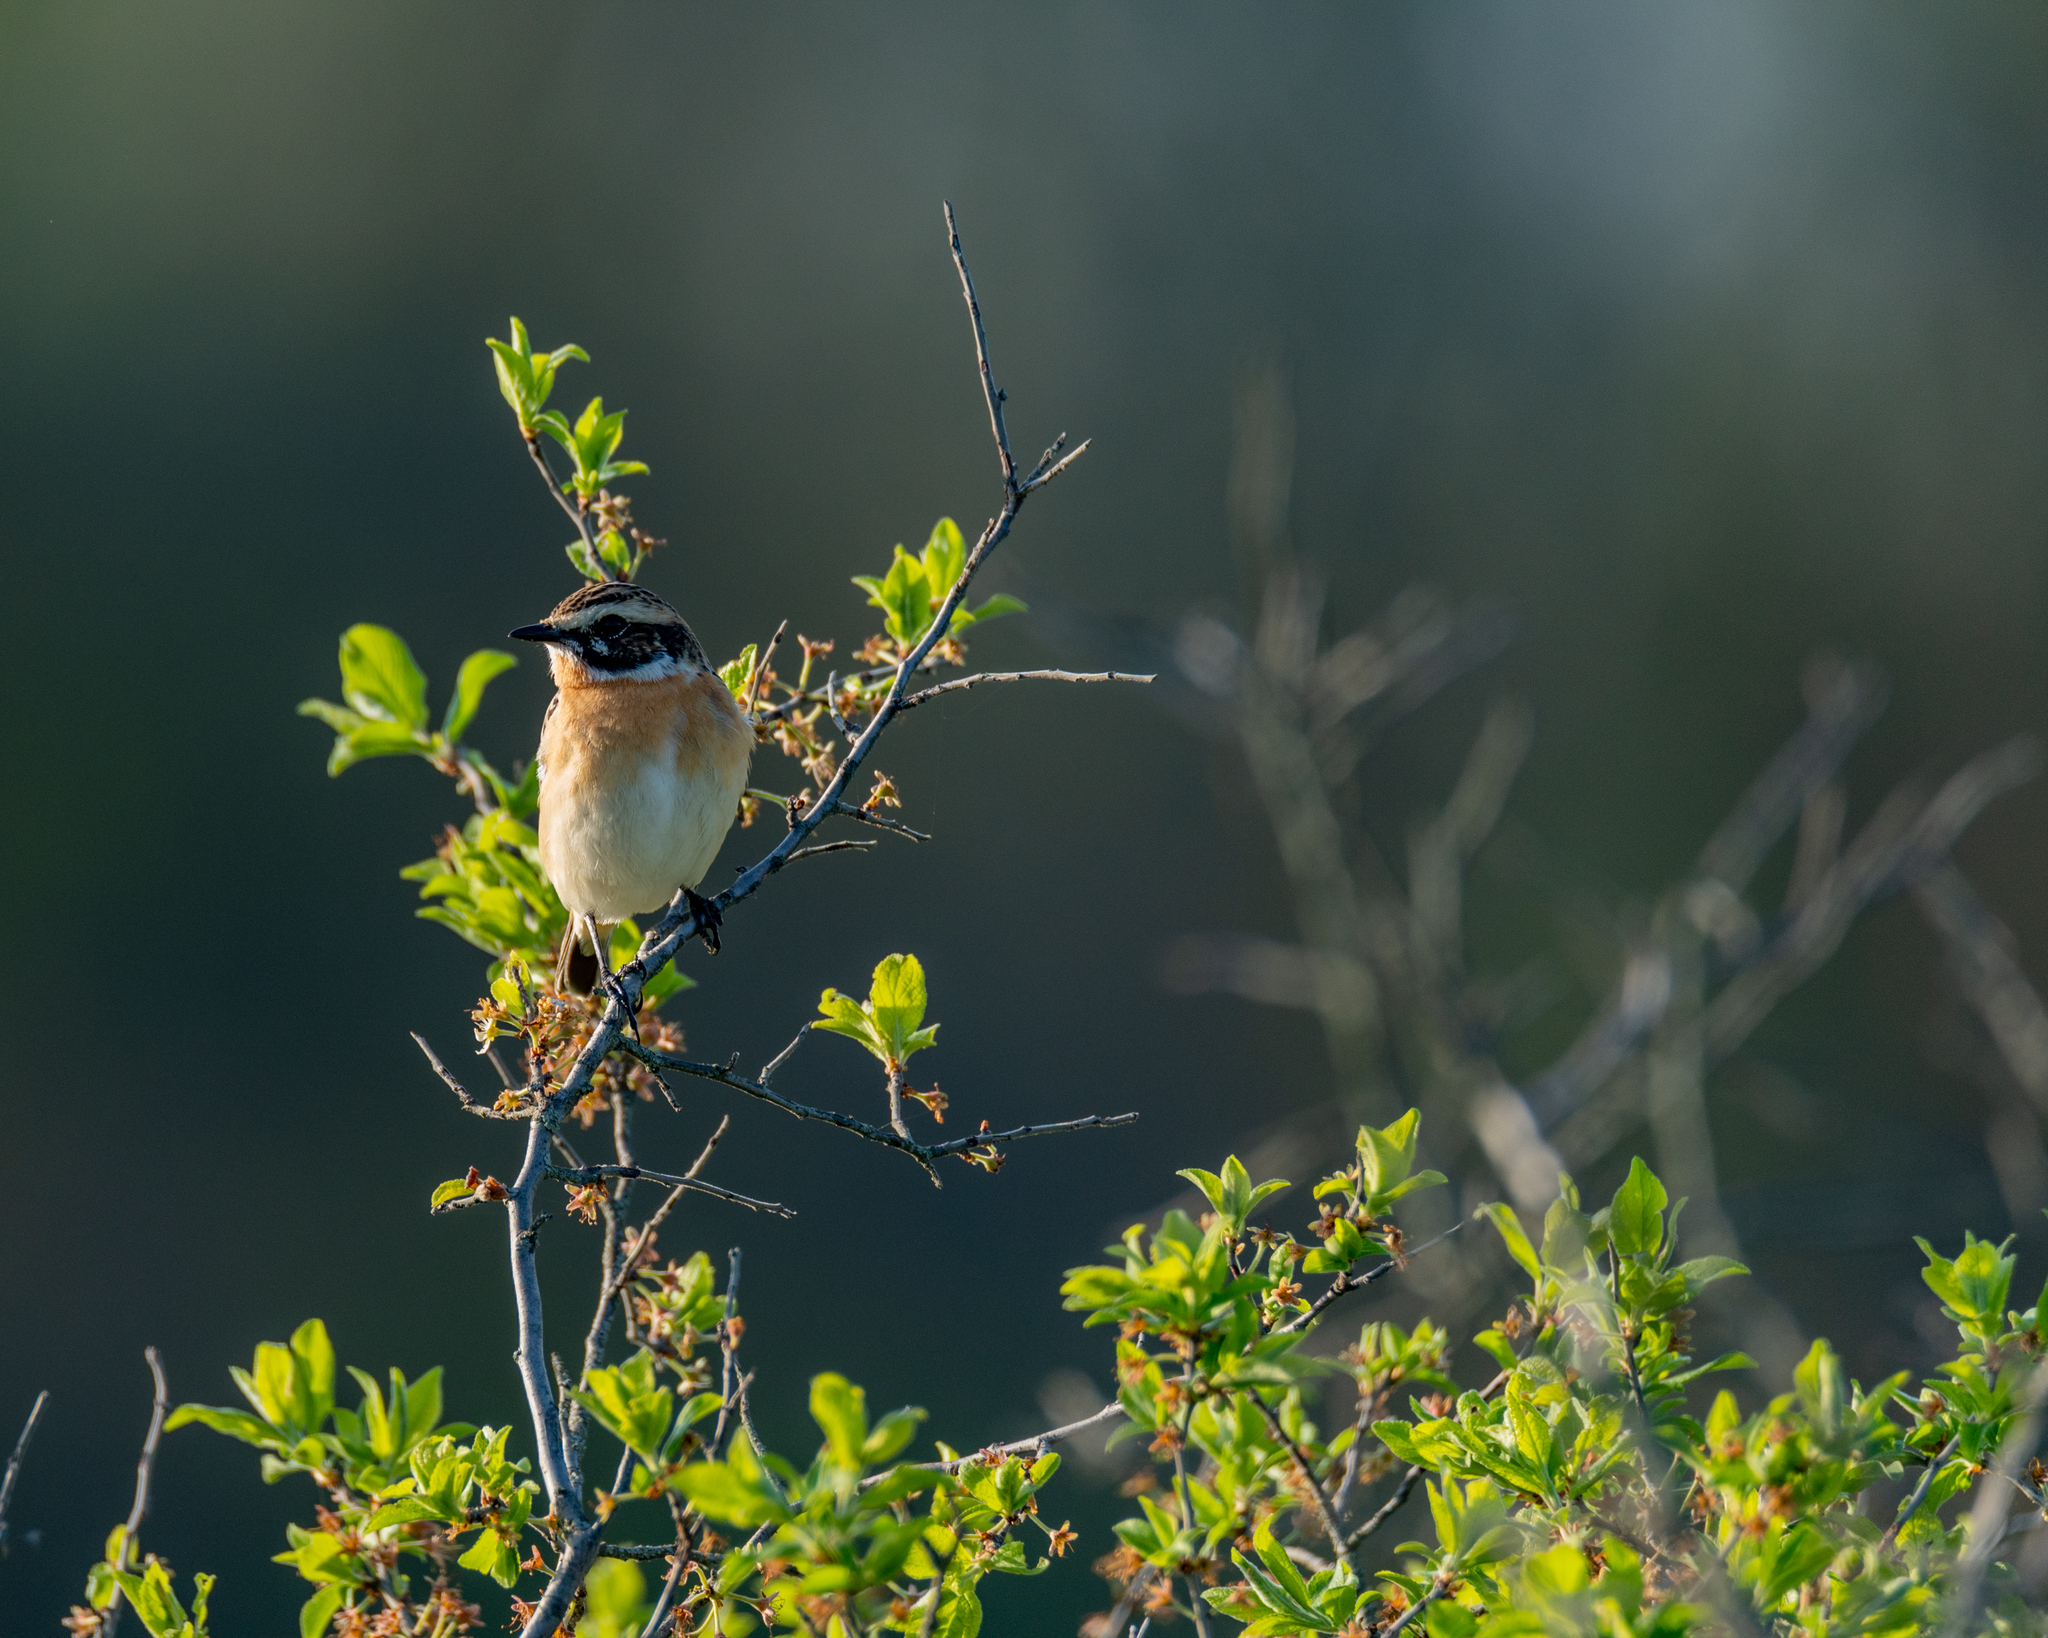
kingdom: Animalia
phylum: Chordata
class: Aves
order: Passeriformes
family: Muscicapidae
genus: Saxicola
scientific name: Saxicola rubetra
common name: Whinchat
